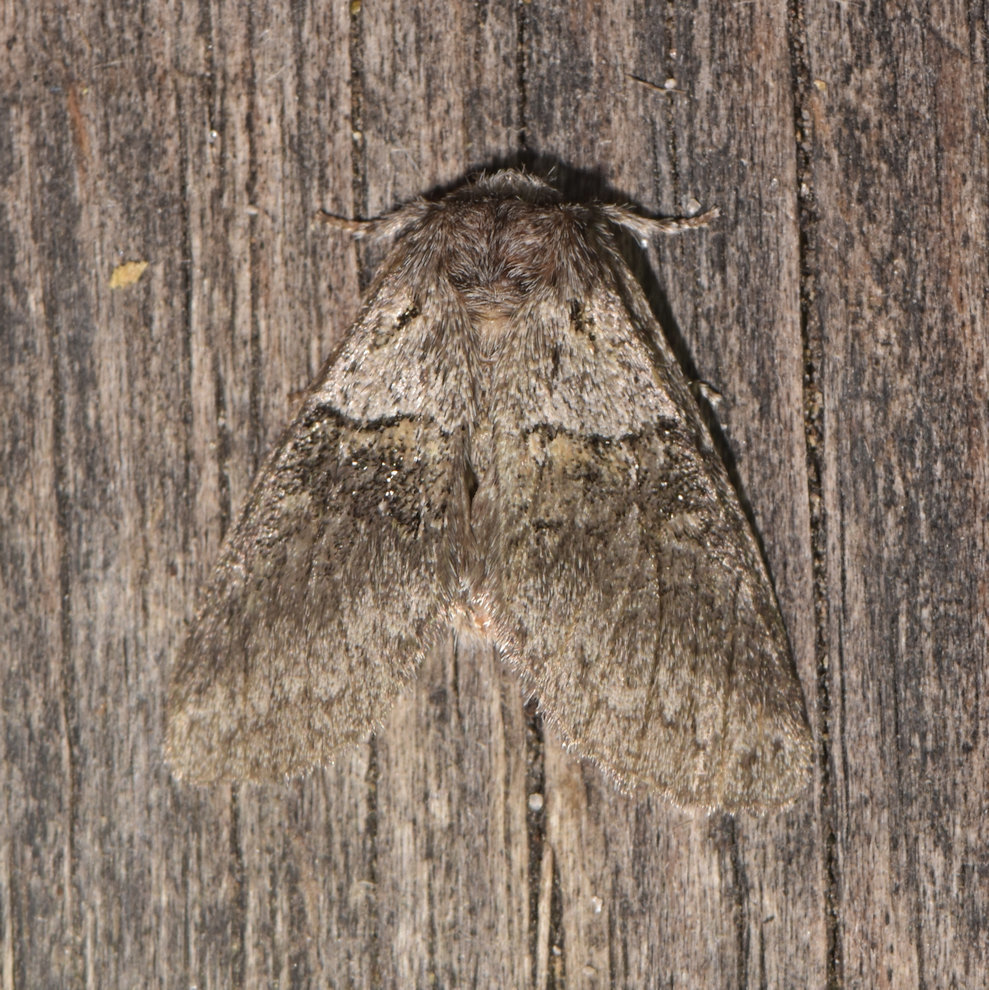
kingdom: Animalia
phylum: Arthropoda
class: Insecta
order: Lepidoptera
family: Notodontidae
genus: Gluphisia
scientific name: Gluphisia septentrionis
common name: Common gluphisia
